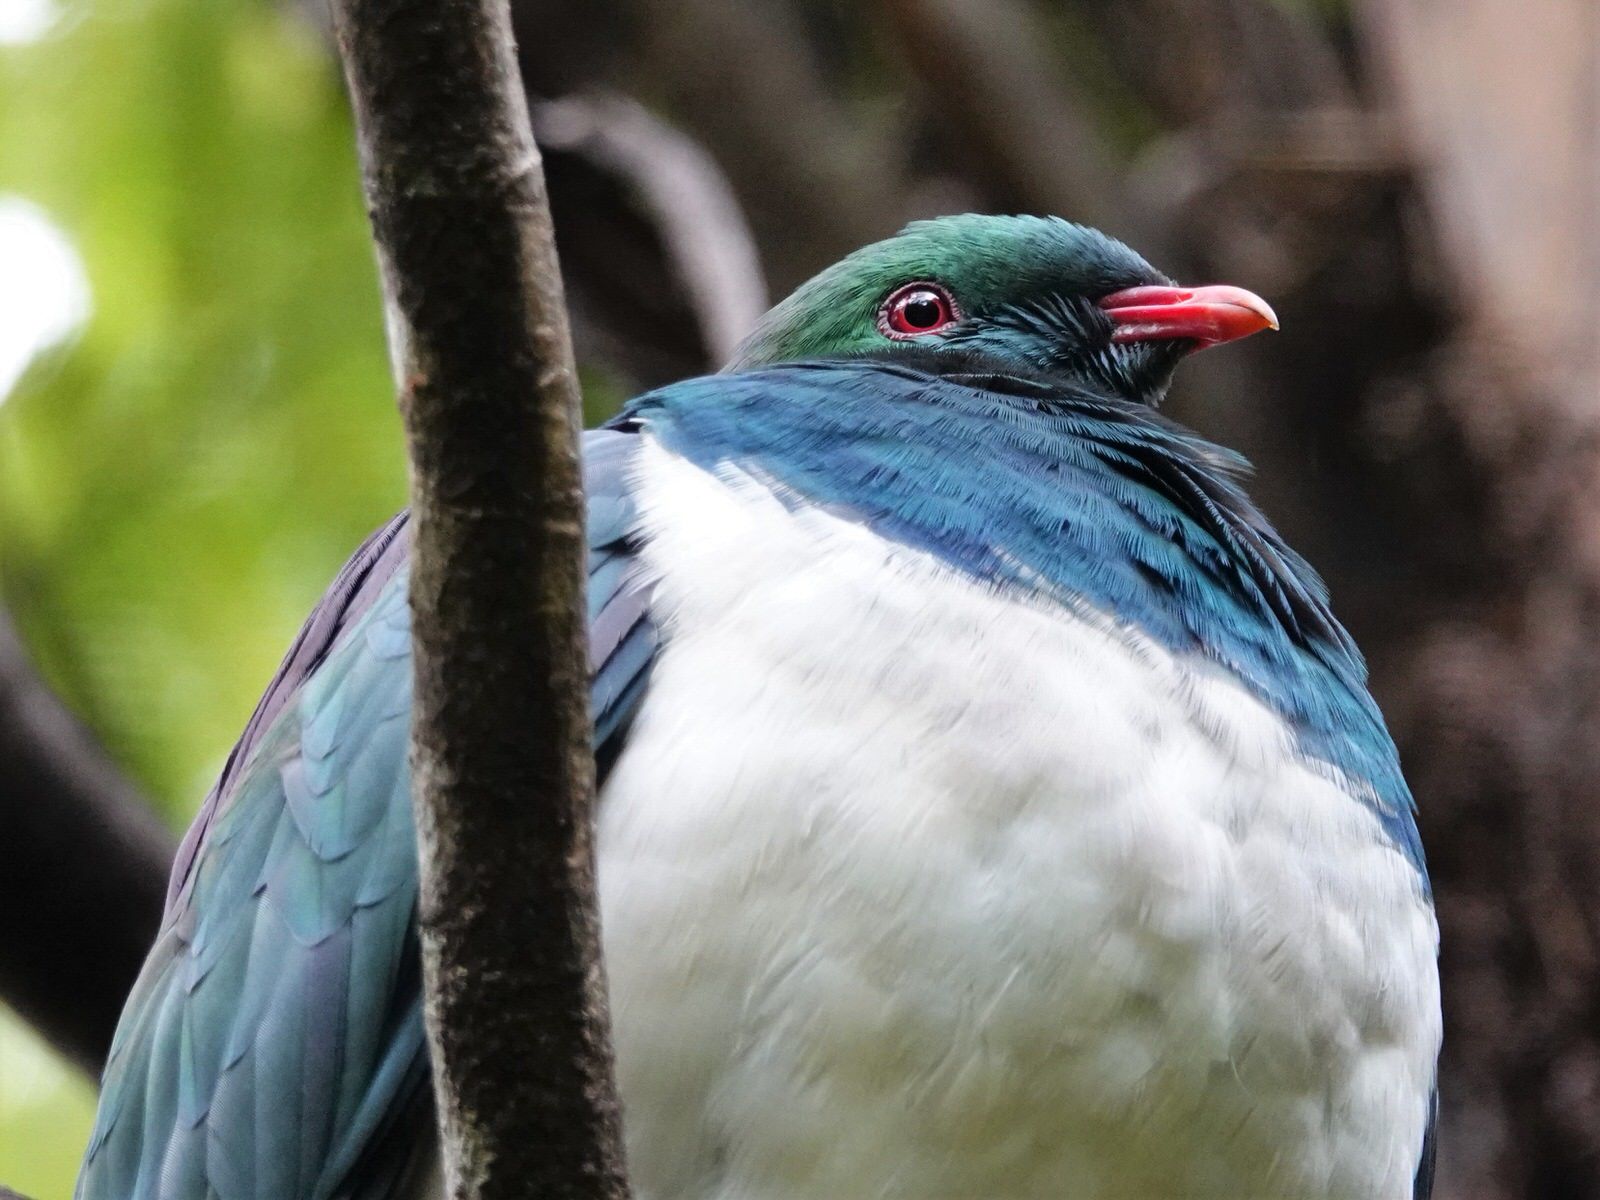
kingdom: Animalia
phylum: Chordata
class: Aves
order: Columbiformes
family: Columbidae
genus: Hemiphaga
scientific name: Hemiphaga novaeseelandiae
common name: New zealand pigeon
